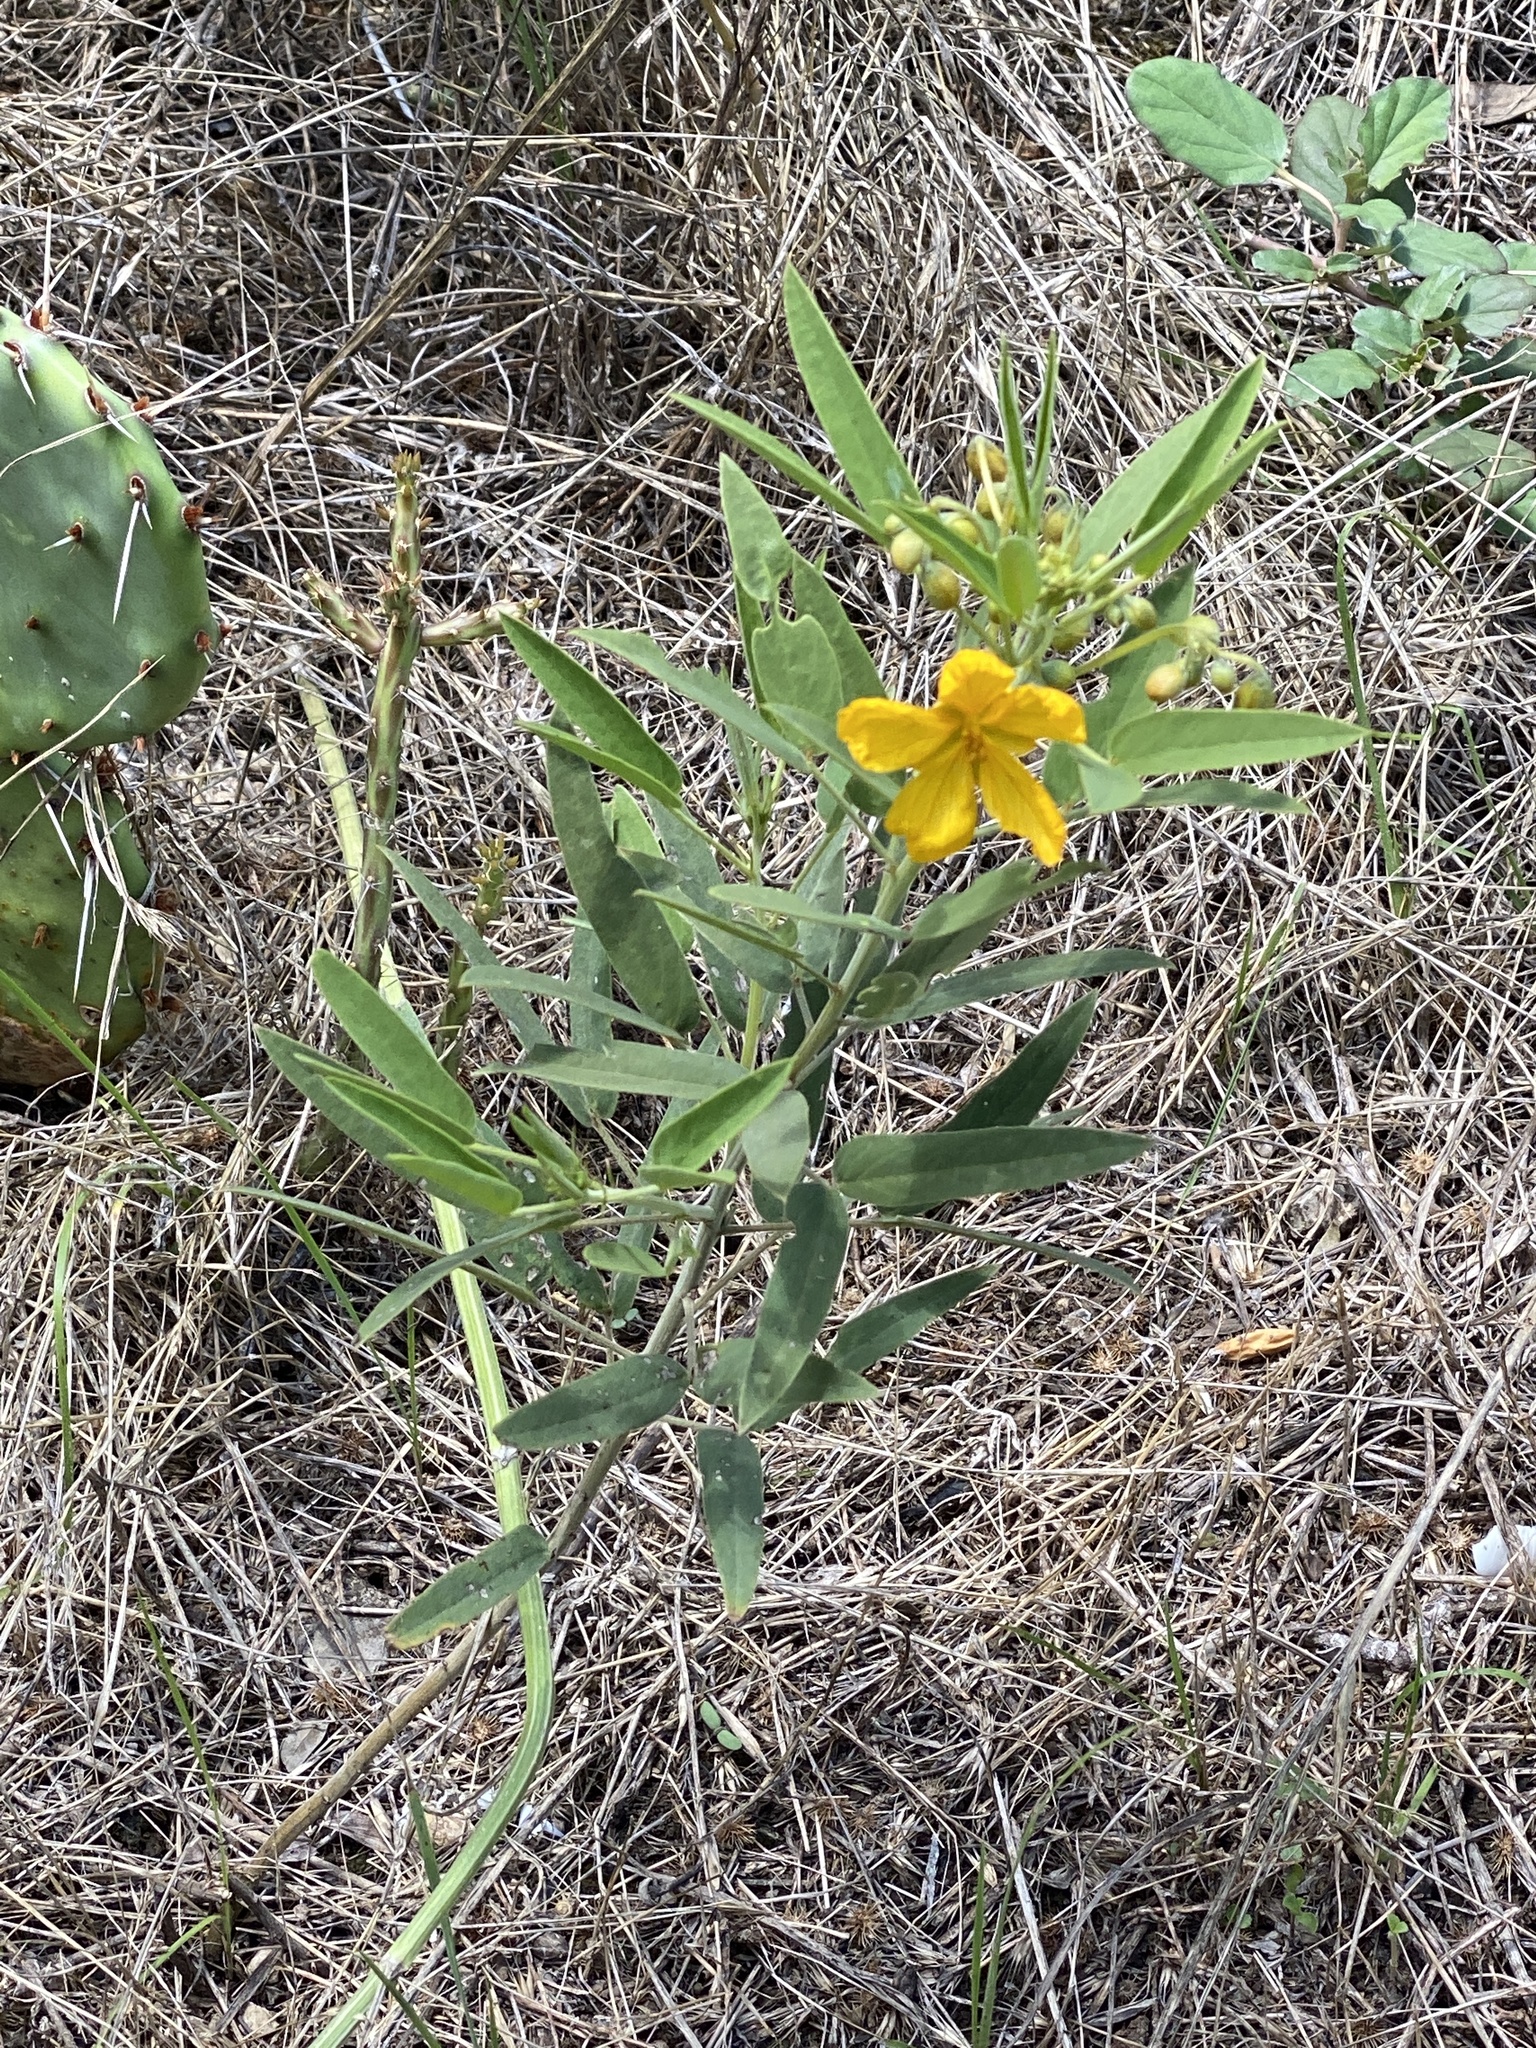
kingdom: Plantae
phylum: Tracheophyta
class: Magnoliopsida
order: Fabales
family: Fabaceae
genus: Senna
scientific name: Senna roemeriana
